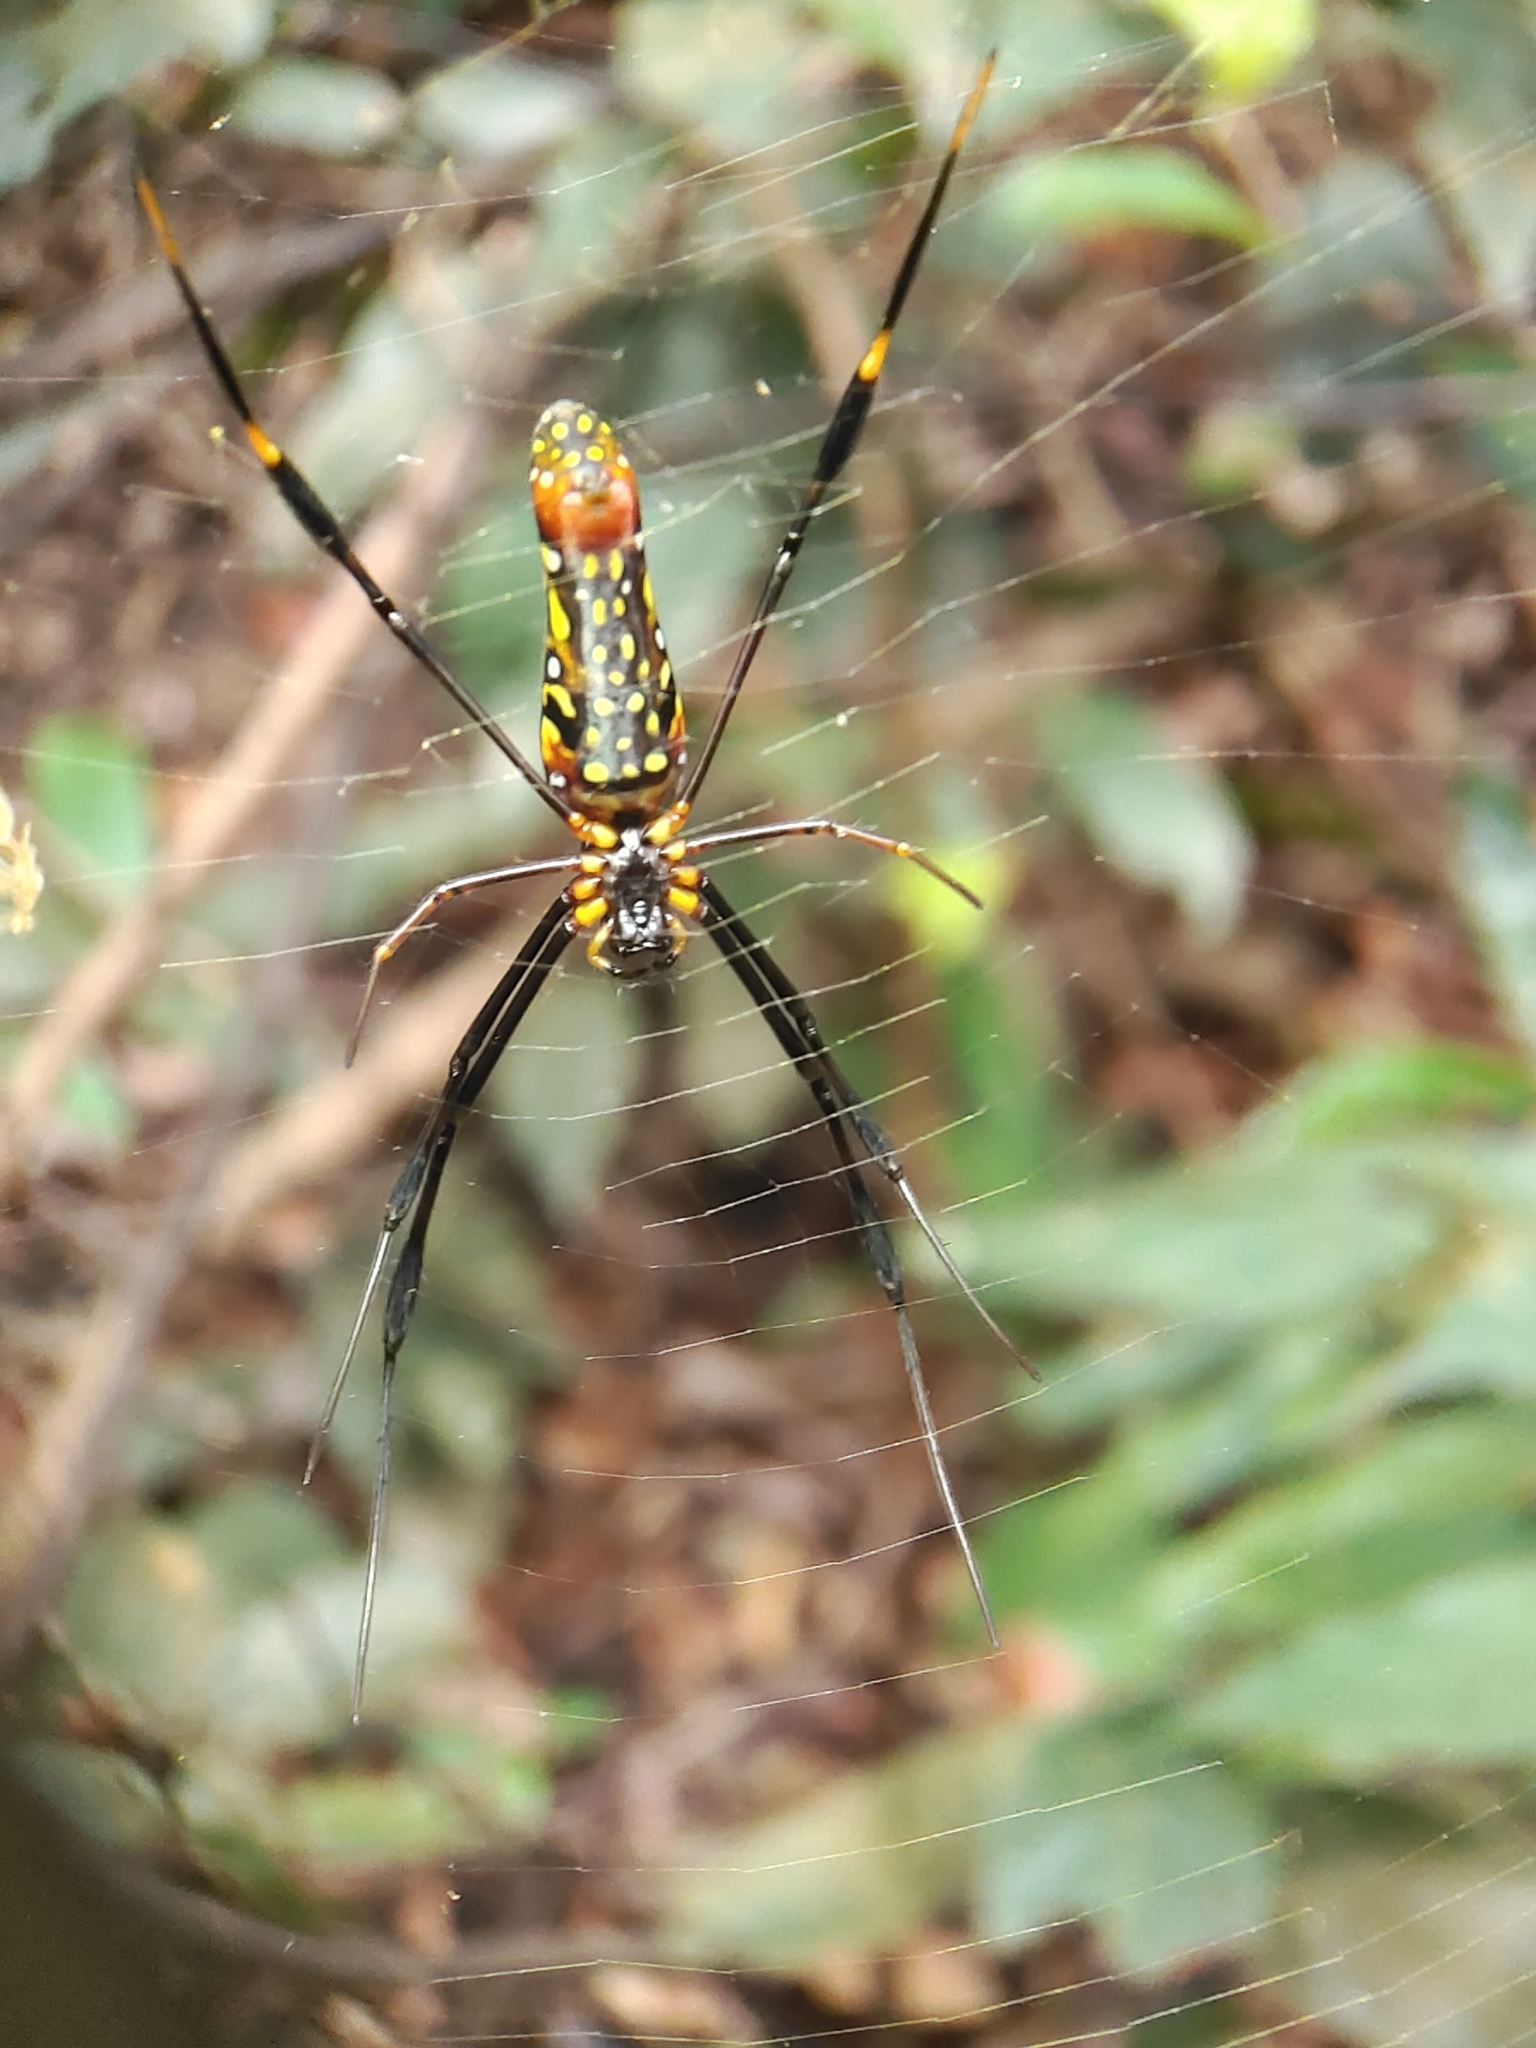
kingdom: Animalia
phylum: Arthropoda
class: Arachnida
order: Araneae
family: Araneidae
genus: Nephila
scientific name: Nephila pilipes
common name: Giant golden orb weaver
